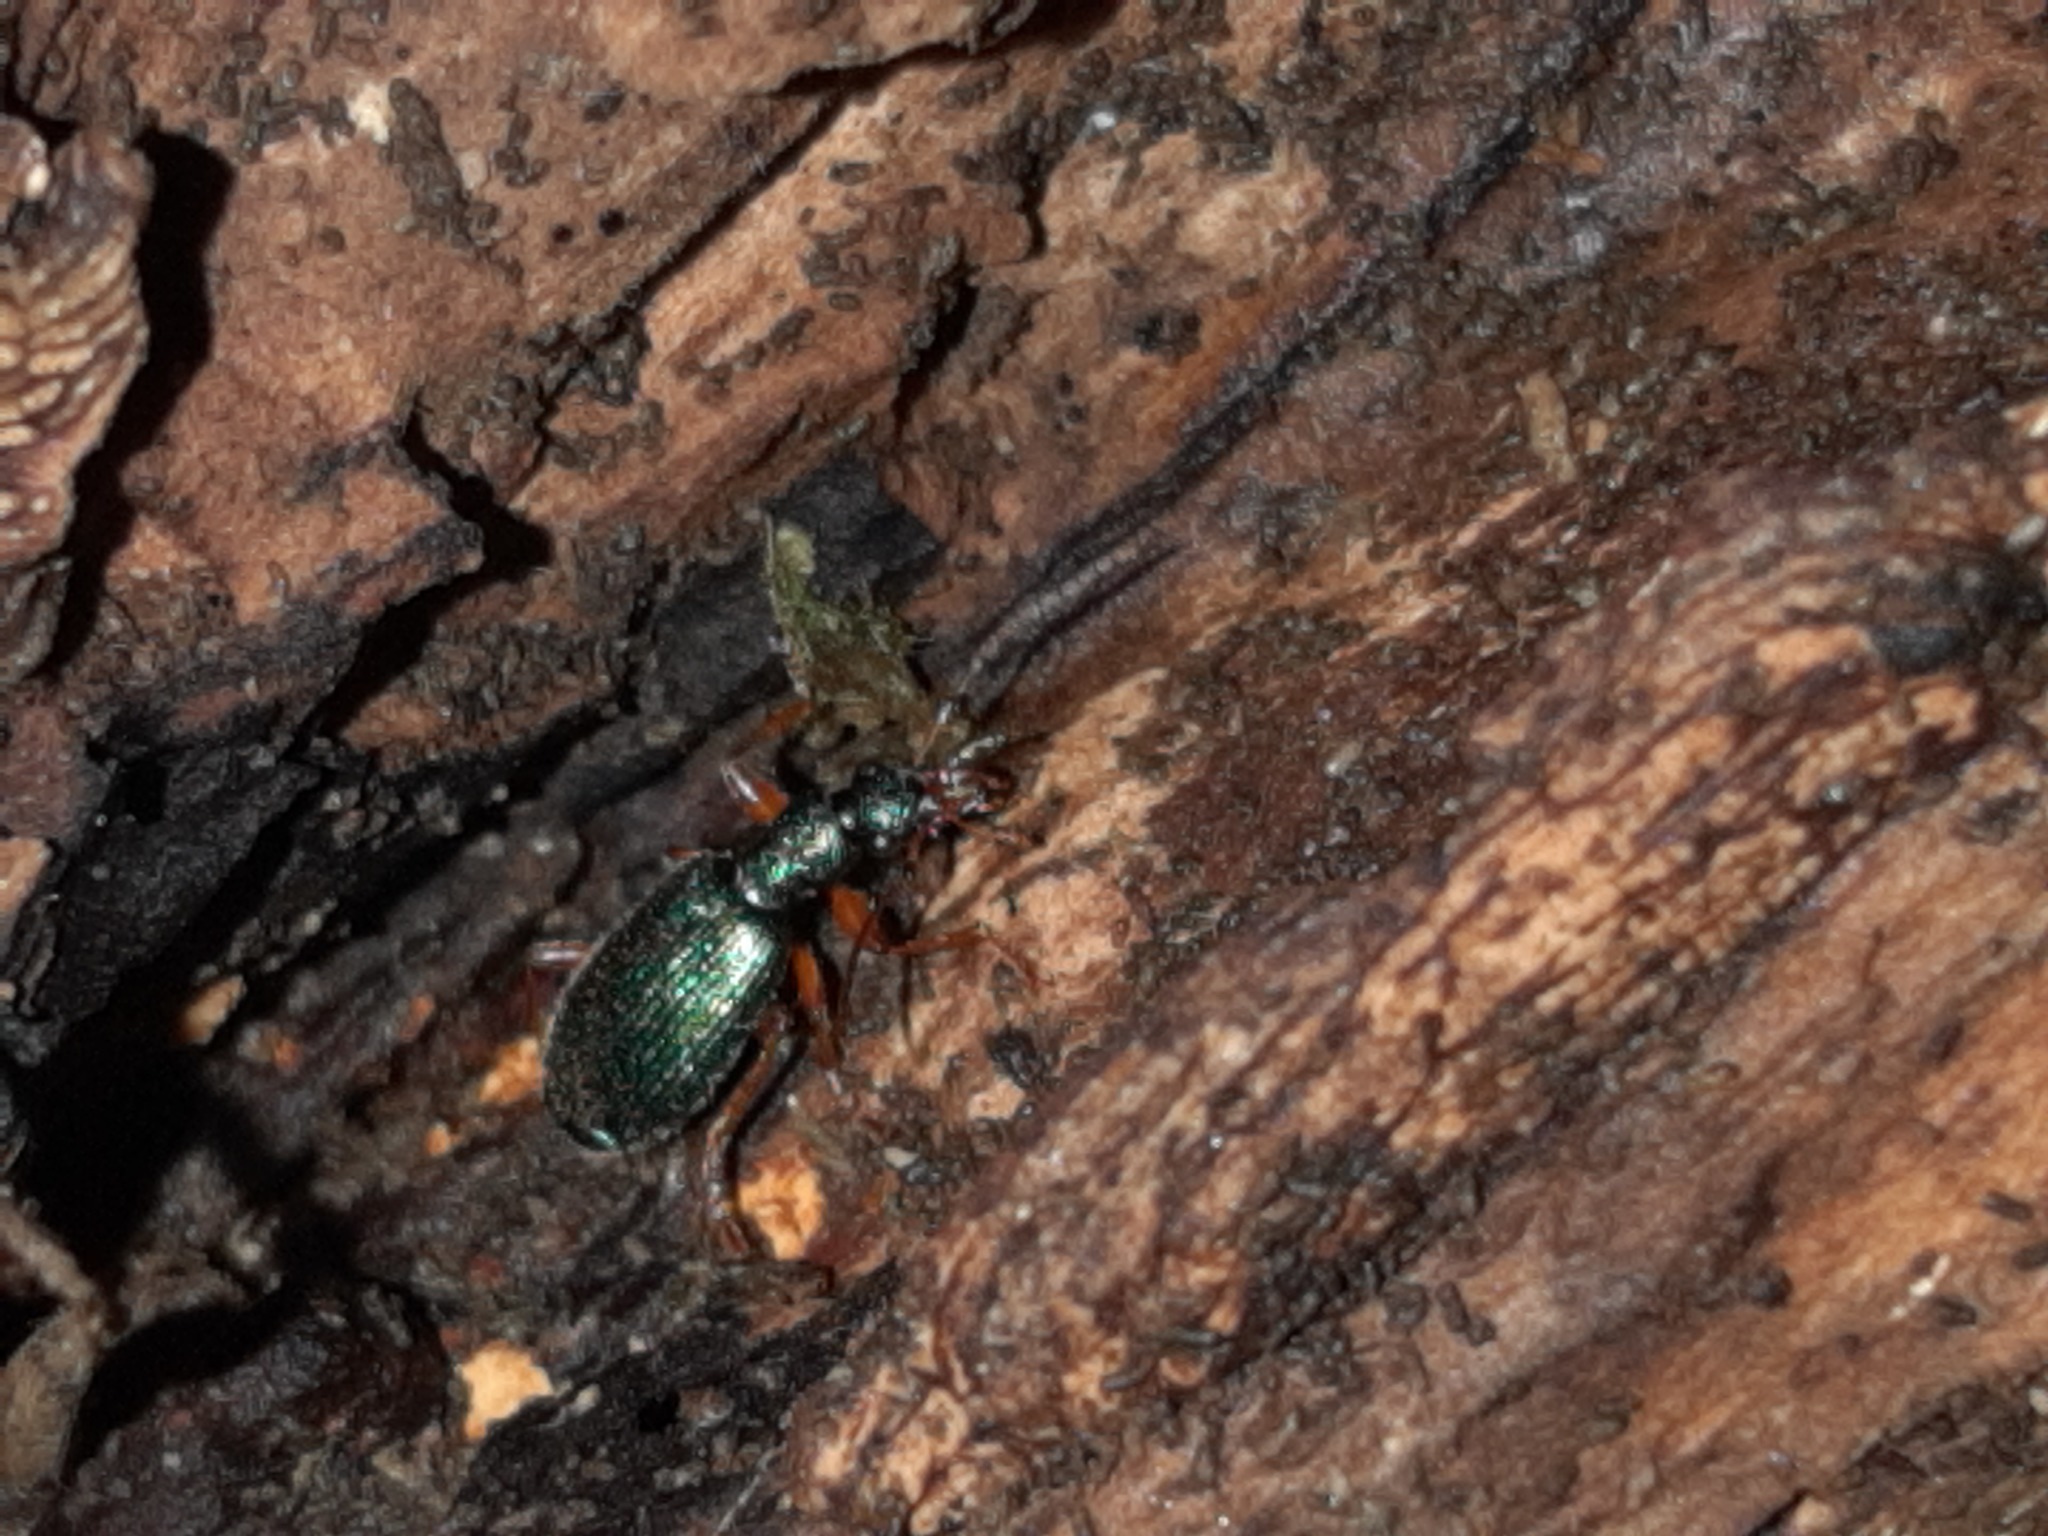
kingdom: Animalia
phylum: Arthropoda
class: Insecta
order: Coleoptera
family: Carabidae
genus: Drypta
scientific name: Drypta dentata
